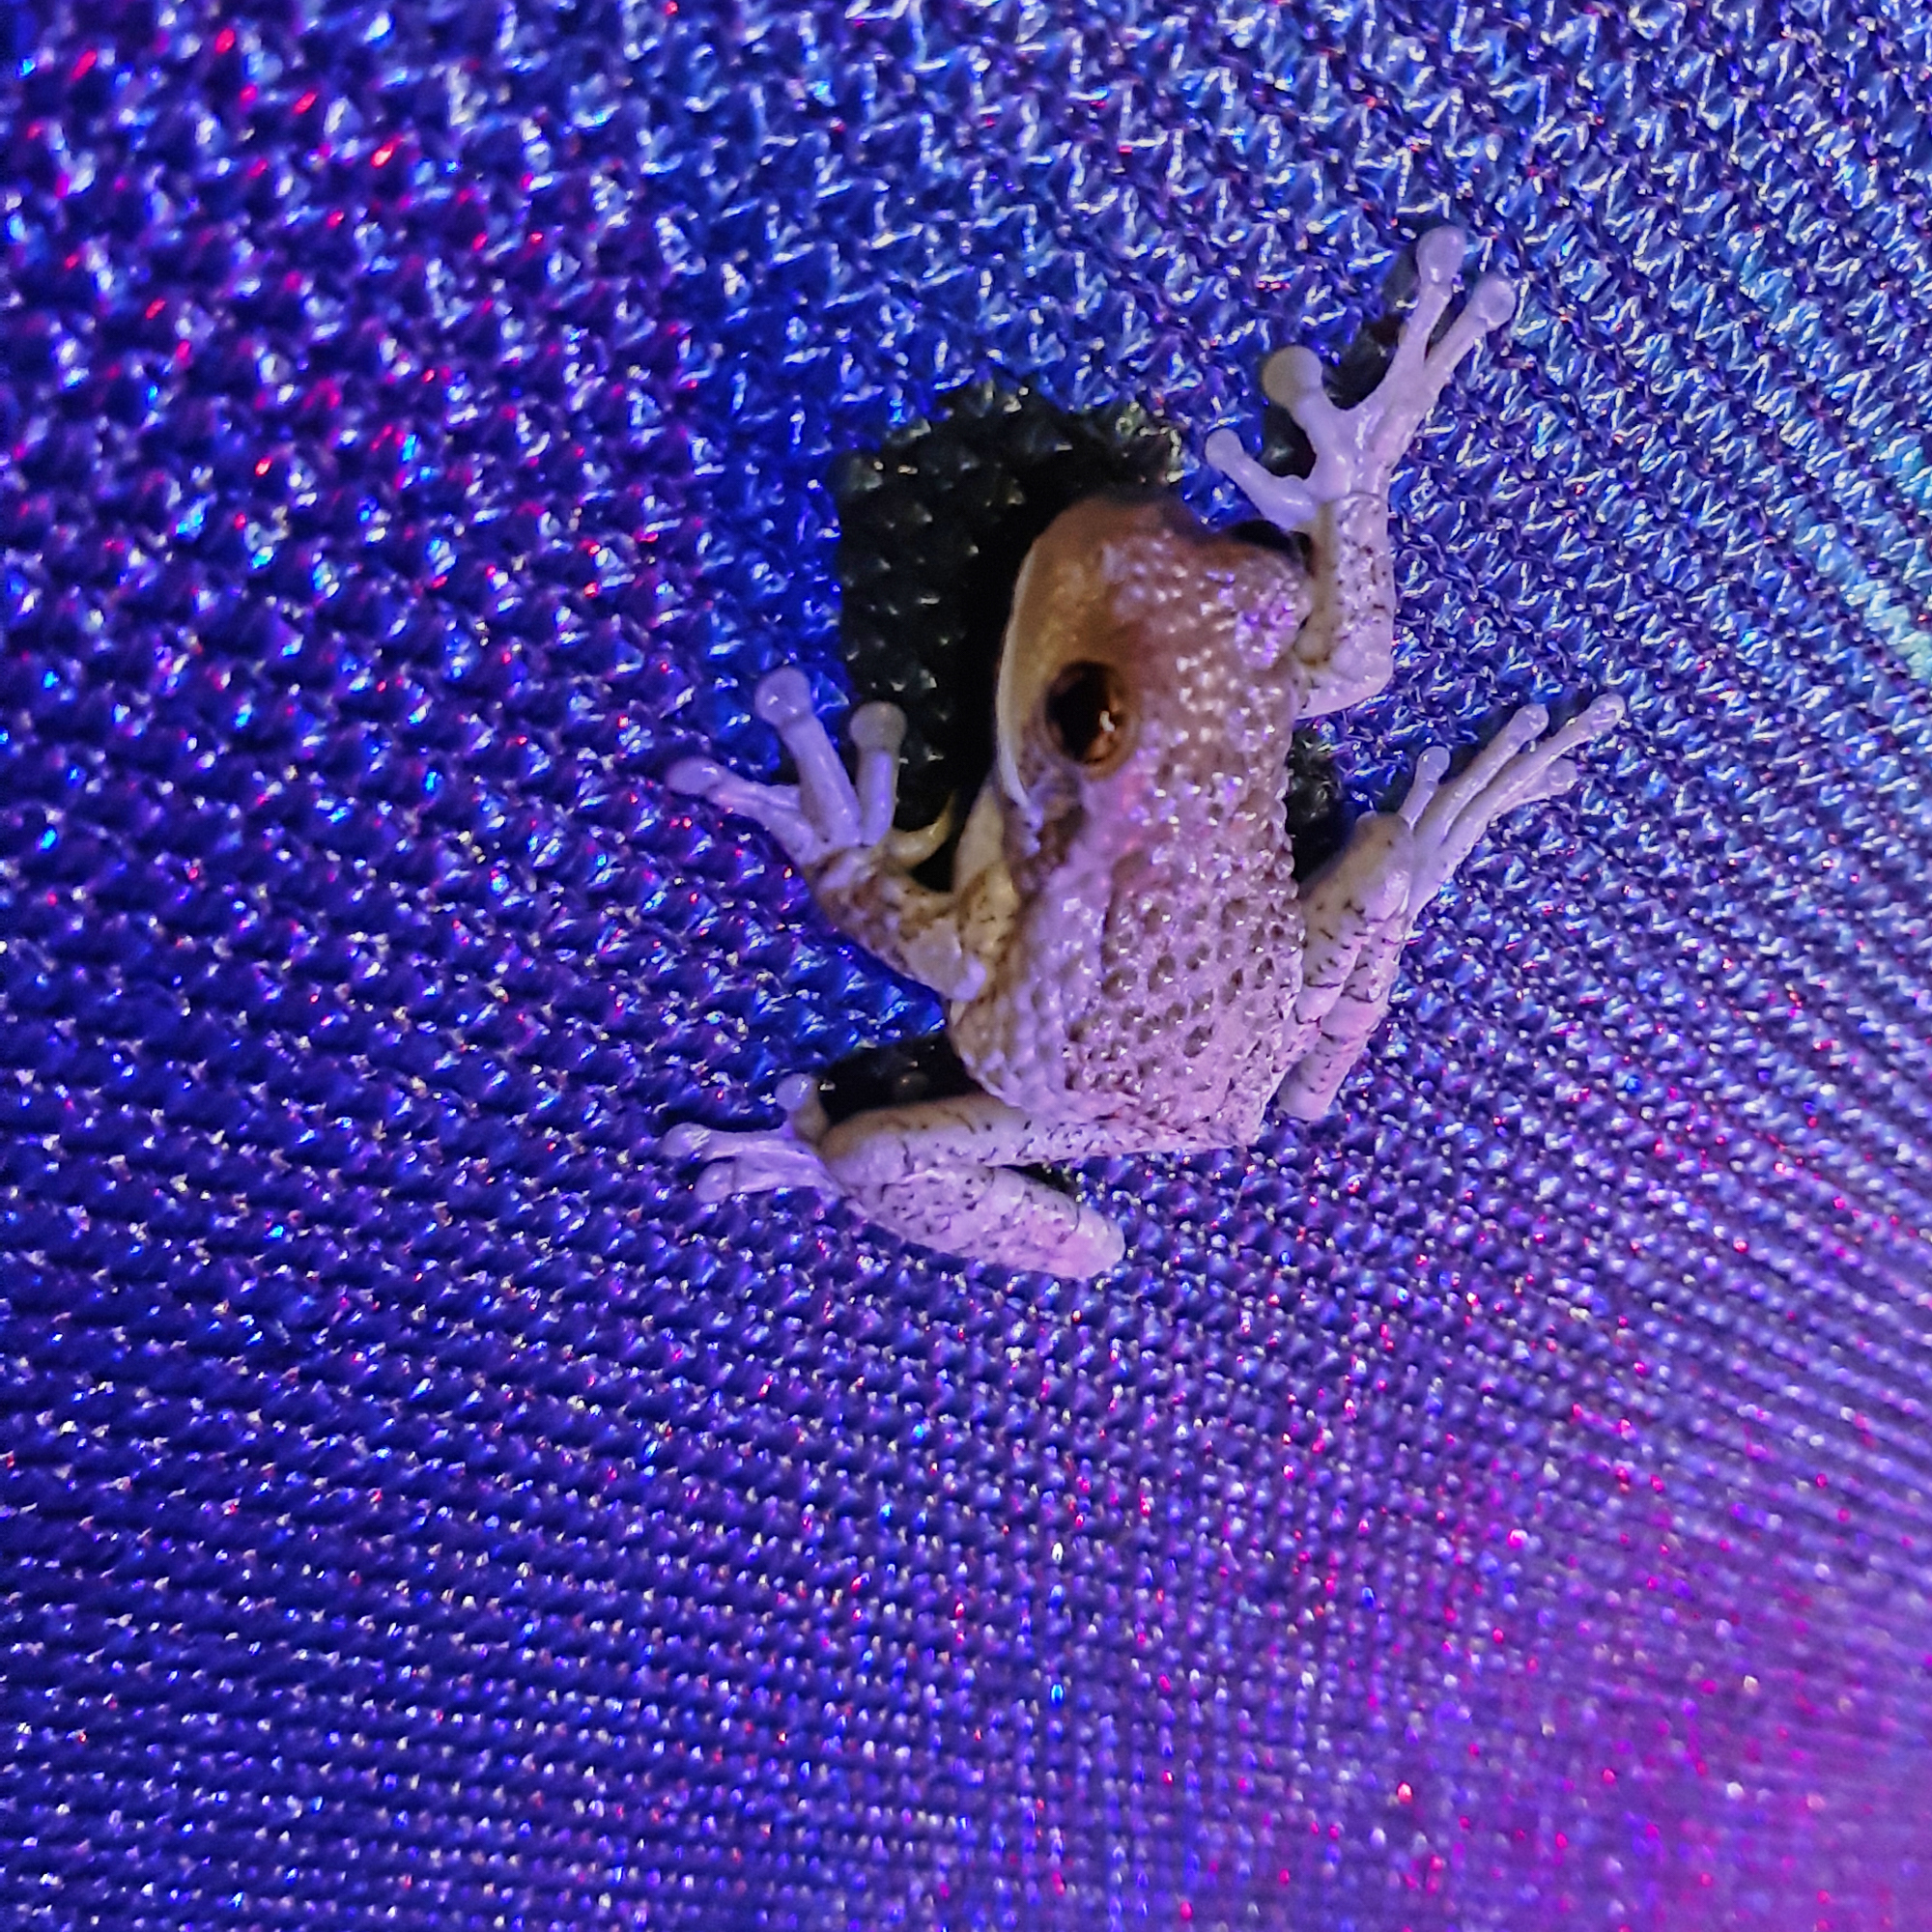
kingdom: Animalia
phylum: Chordata
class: Amphibia
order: Anura
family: Hylidae
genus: Trachycephalus
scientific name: Trachycephalus vermiculatus
